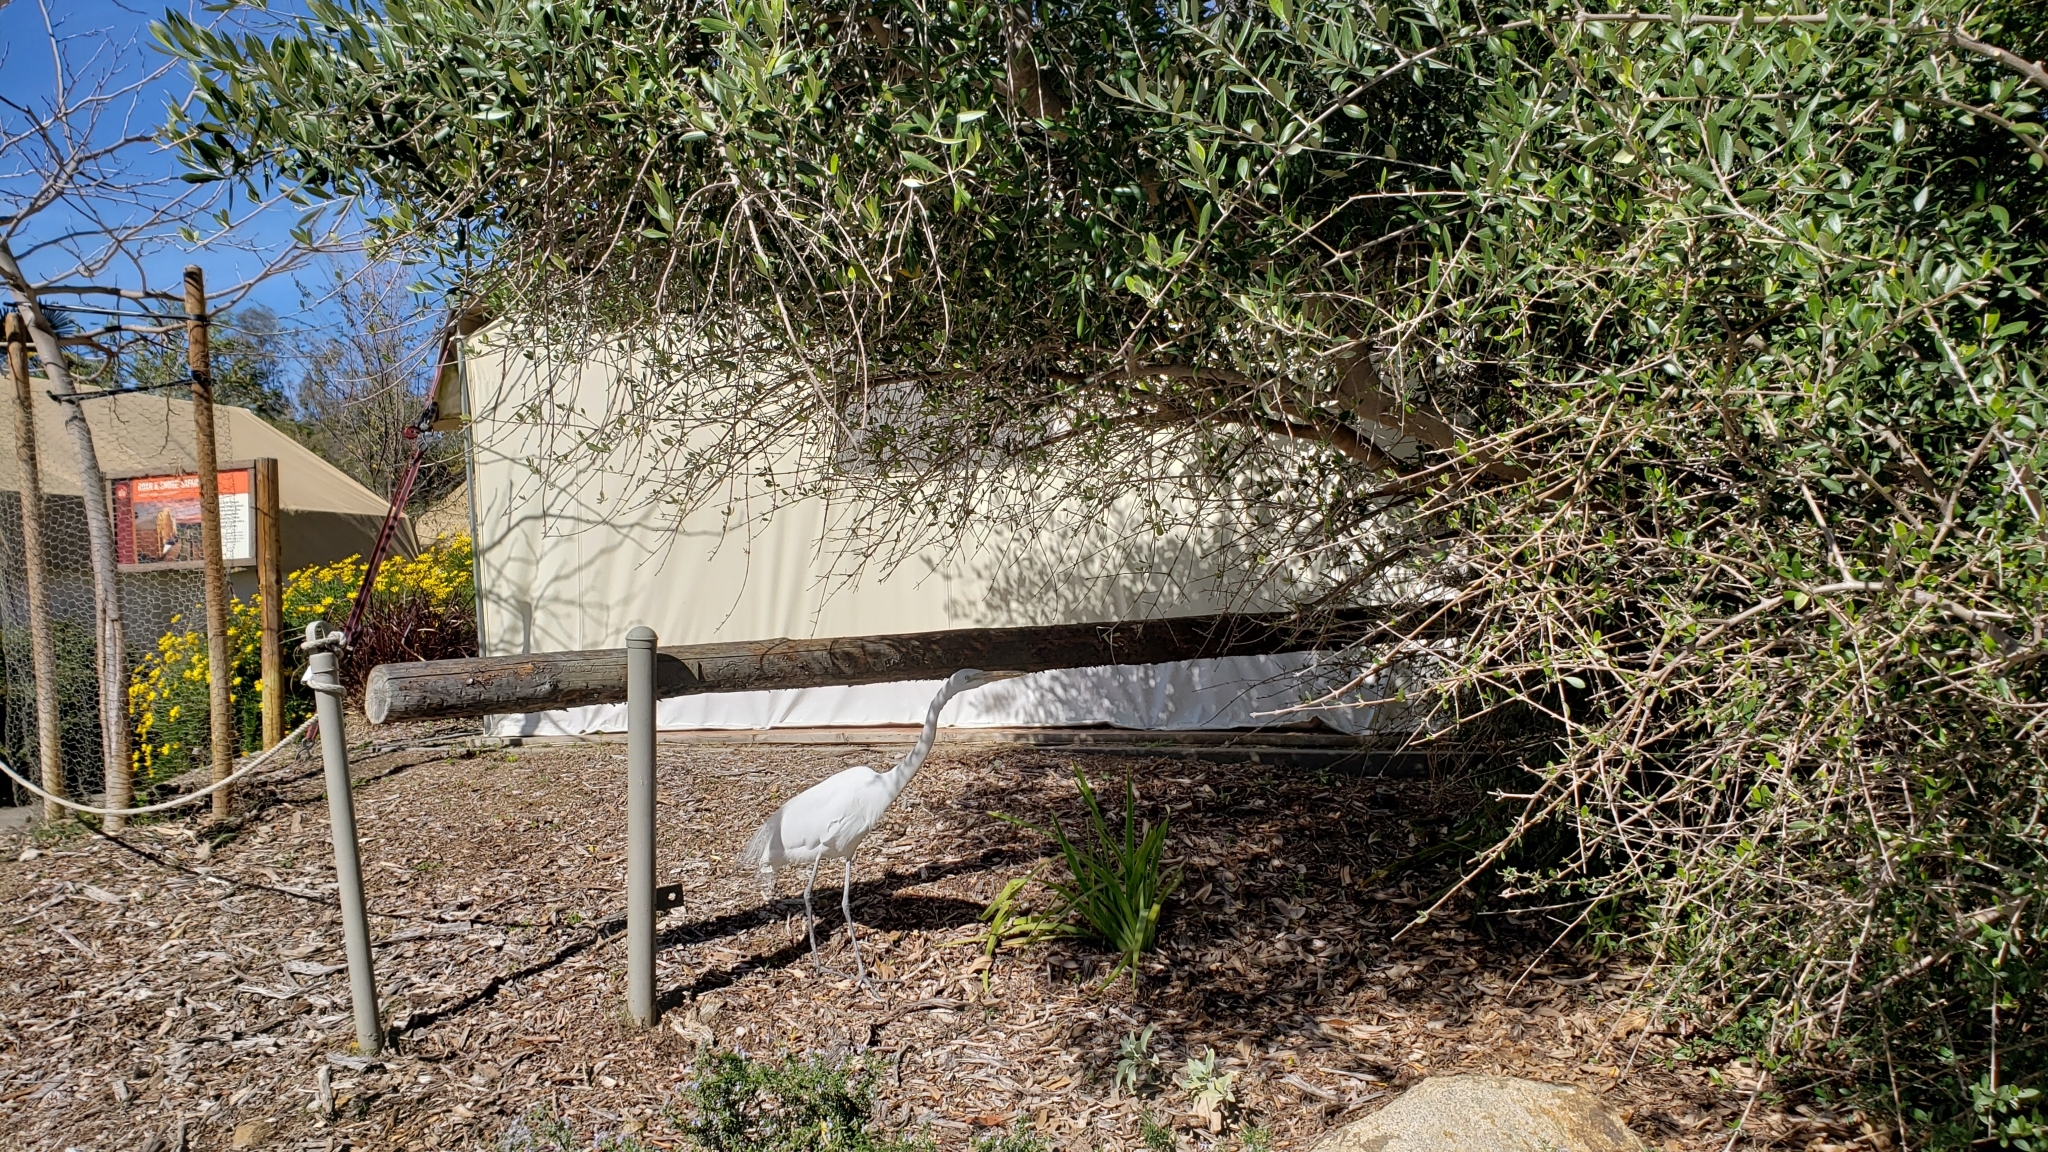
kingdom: Animalia
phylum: Chordata
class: Aves
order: Pelecaniformes
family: Ardeidae
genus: Ardea
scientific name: Ardea alba
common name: Great egret
